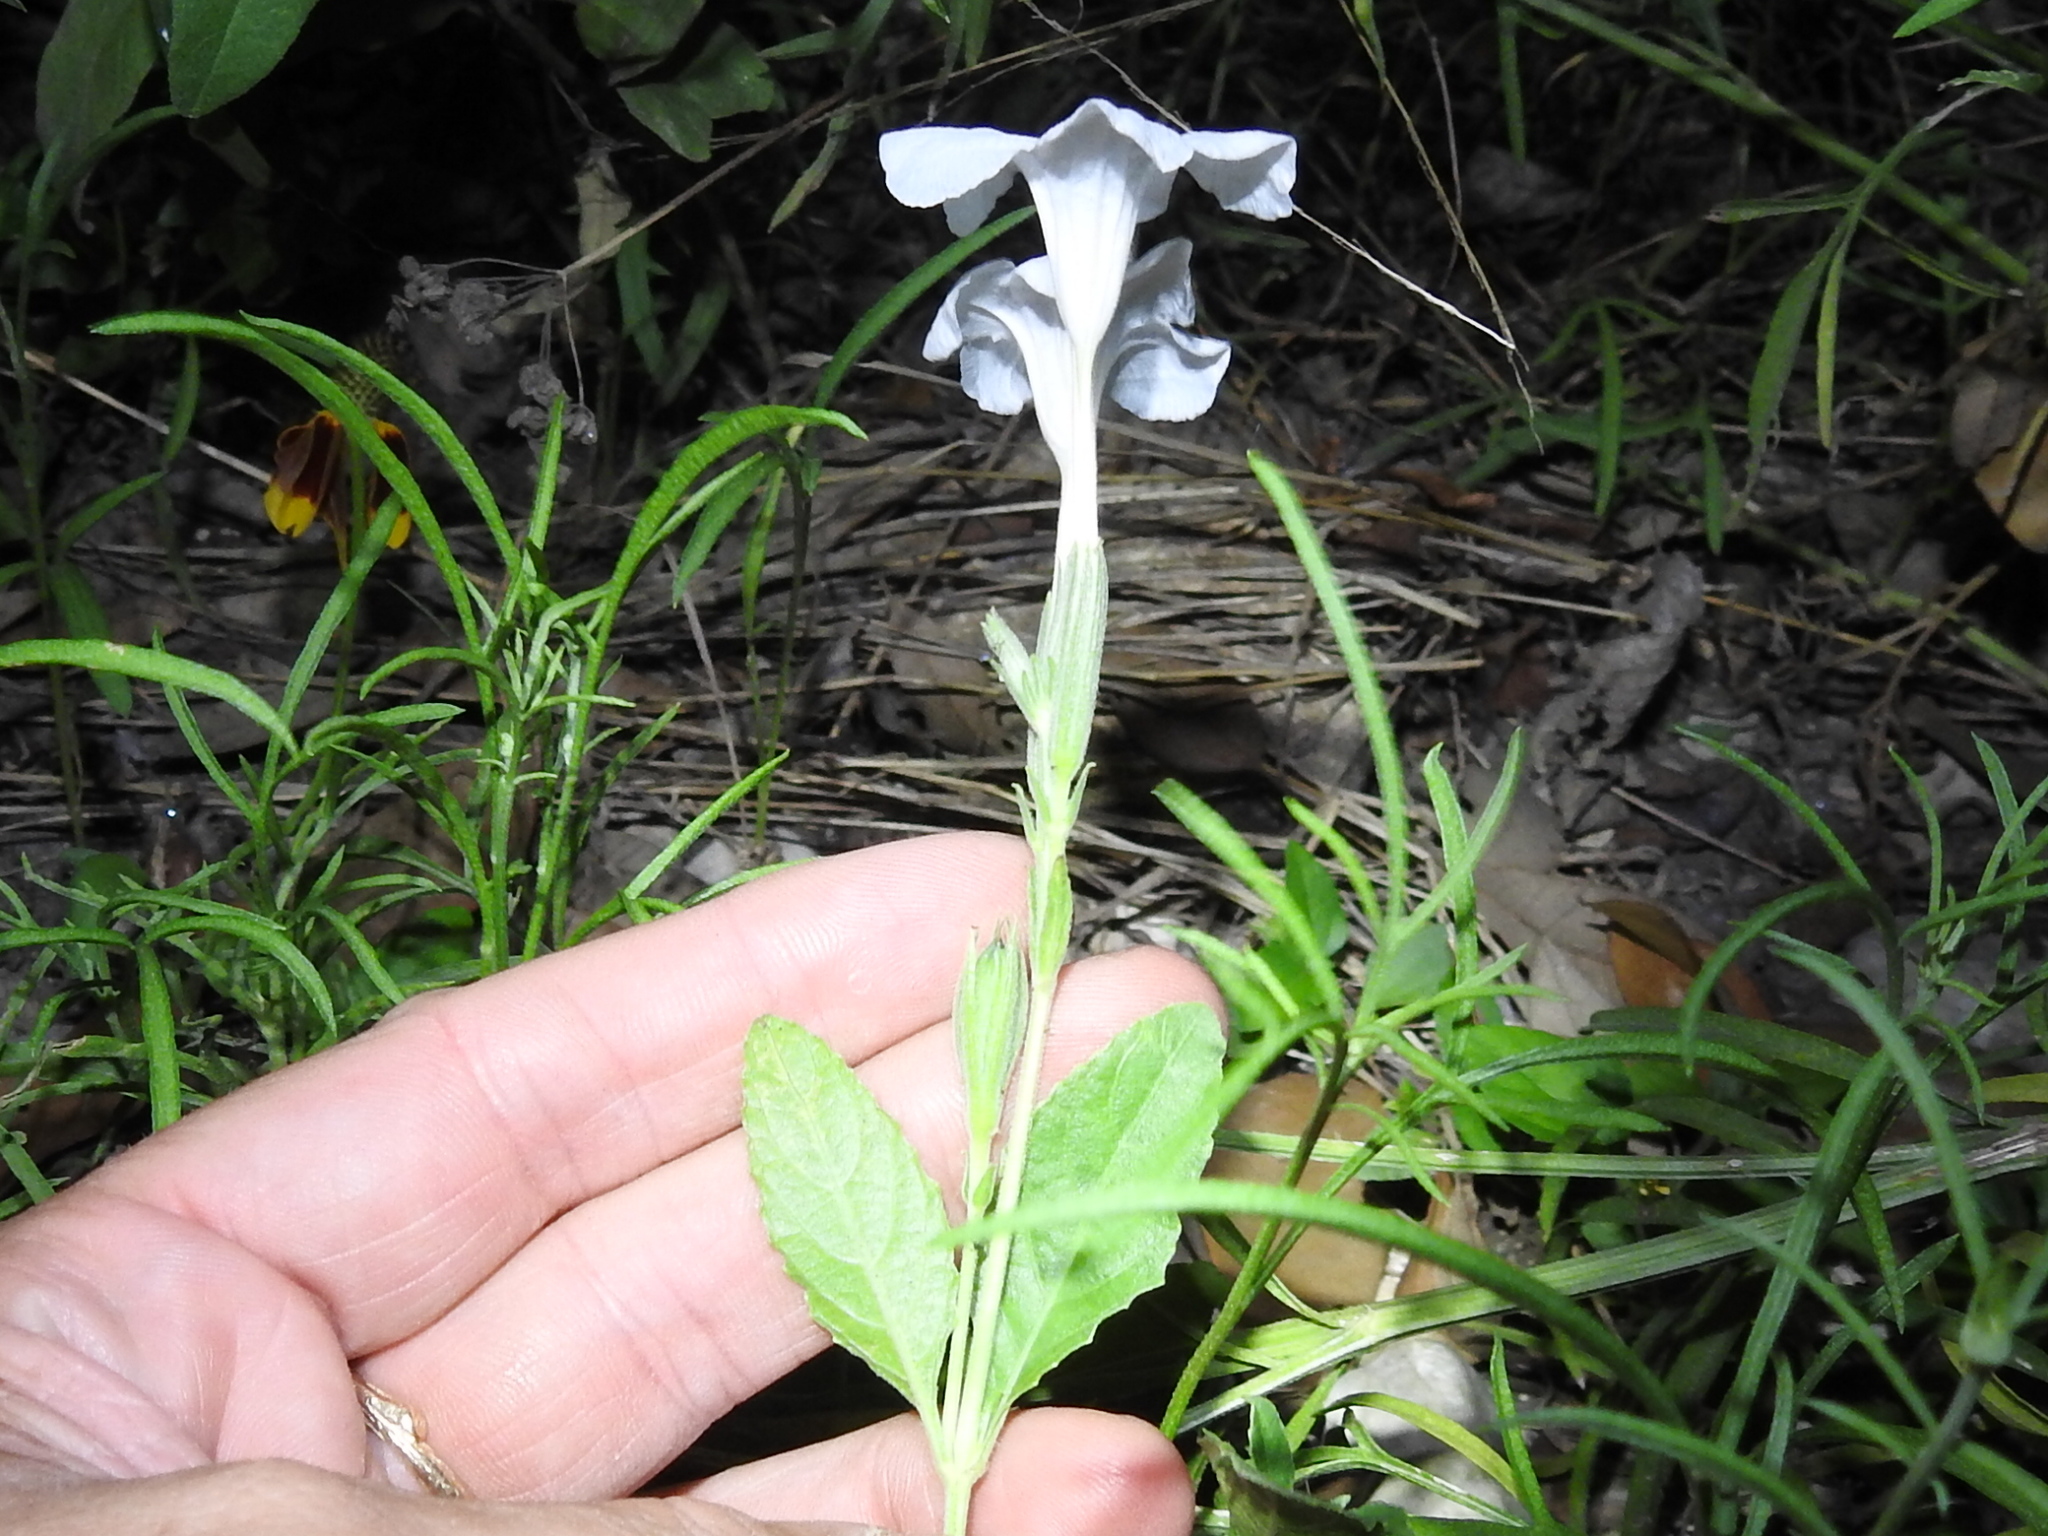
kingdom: Plantae
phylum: Tracheophyta
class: Magnoliopsida
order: Lamiales
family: Acanthaceae
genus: Ruellia
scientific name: Ruellia metziae
